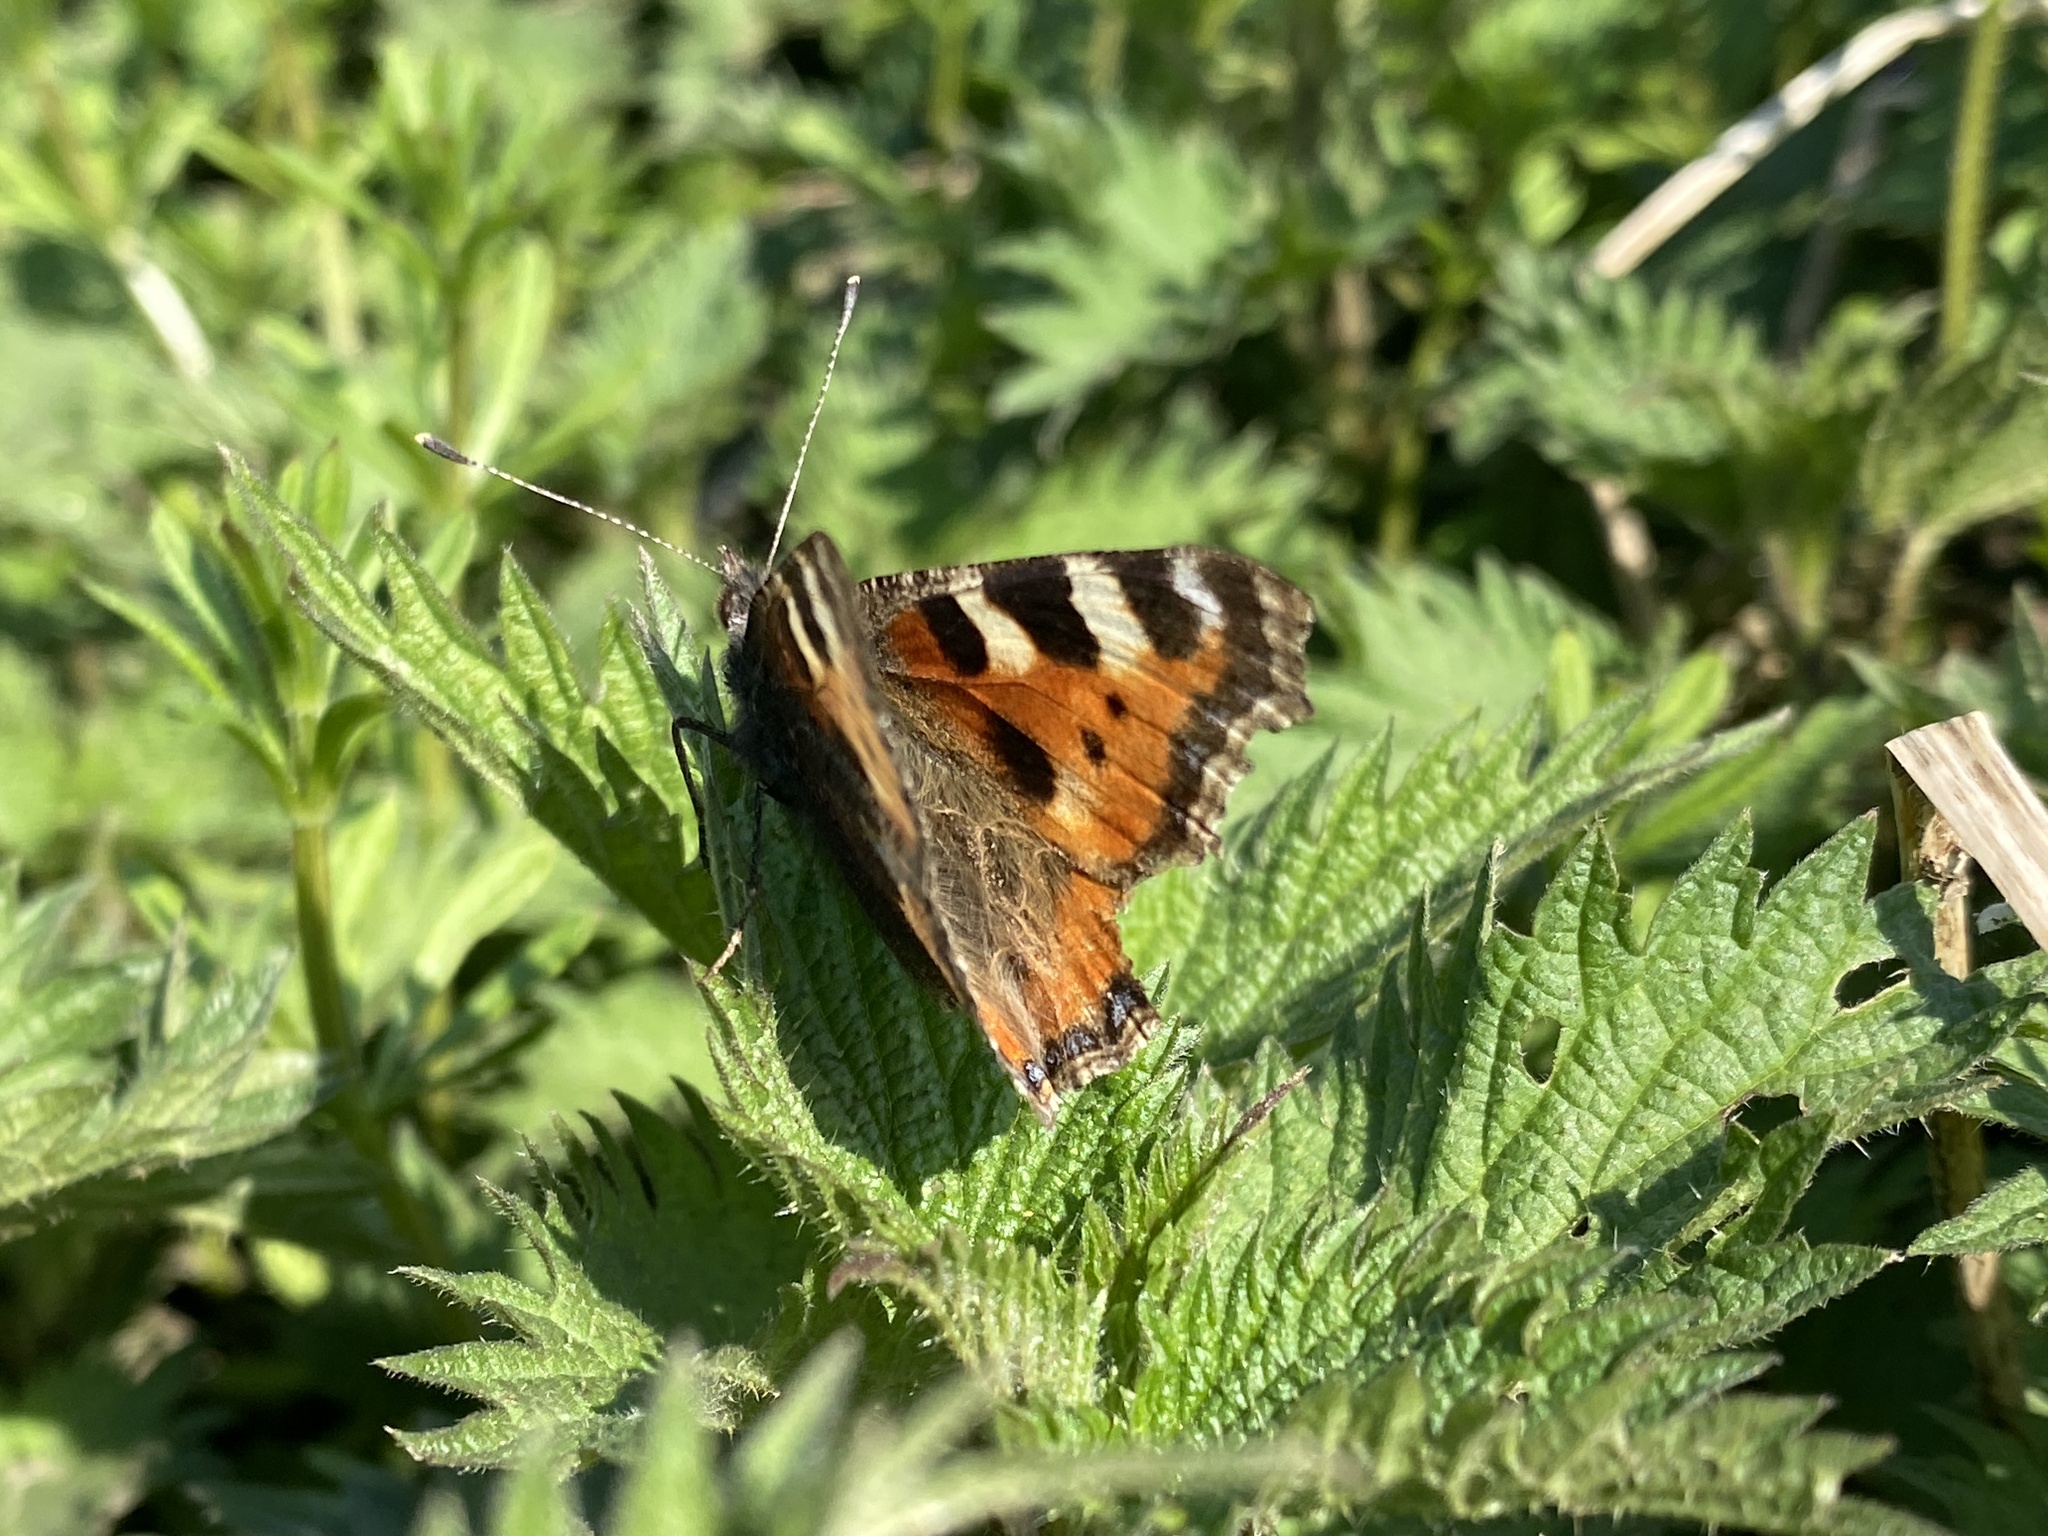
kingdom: Animalia
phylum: Arthropoda
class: Insecta
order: Lepidoptera
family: Nymphalidae
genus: Aglais
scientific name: Aglais urticae
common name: Small tortoiseshell
